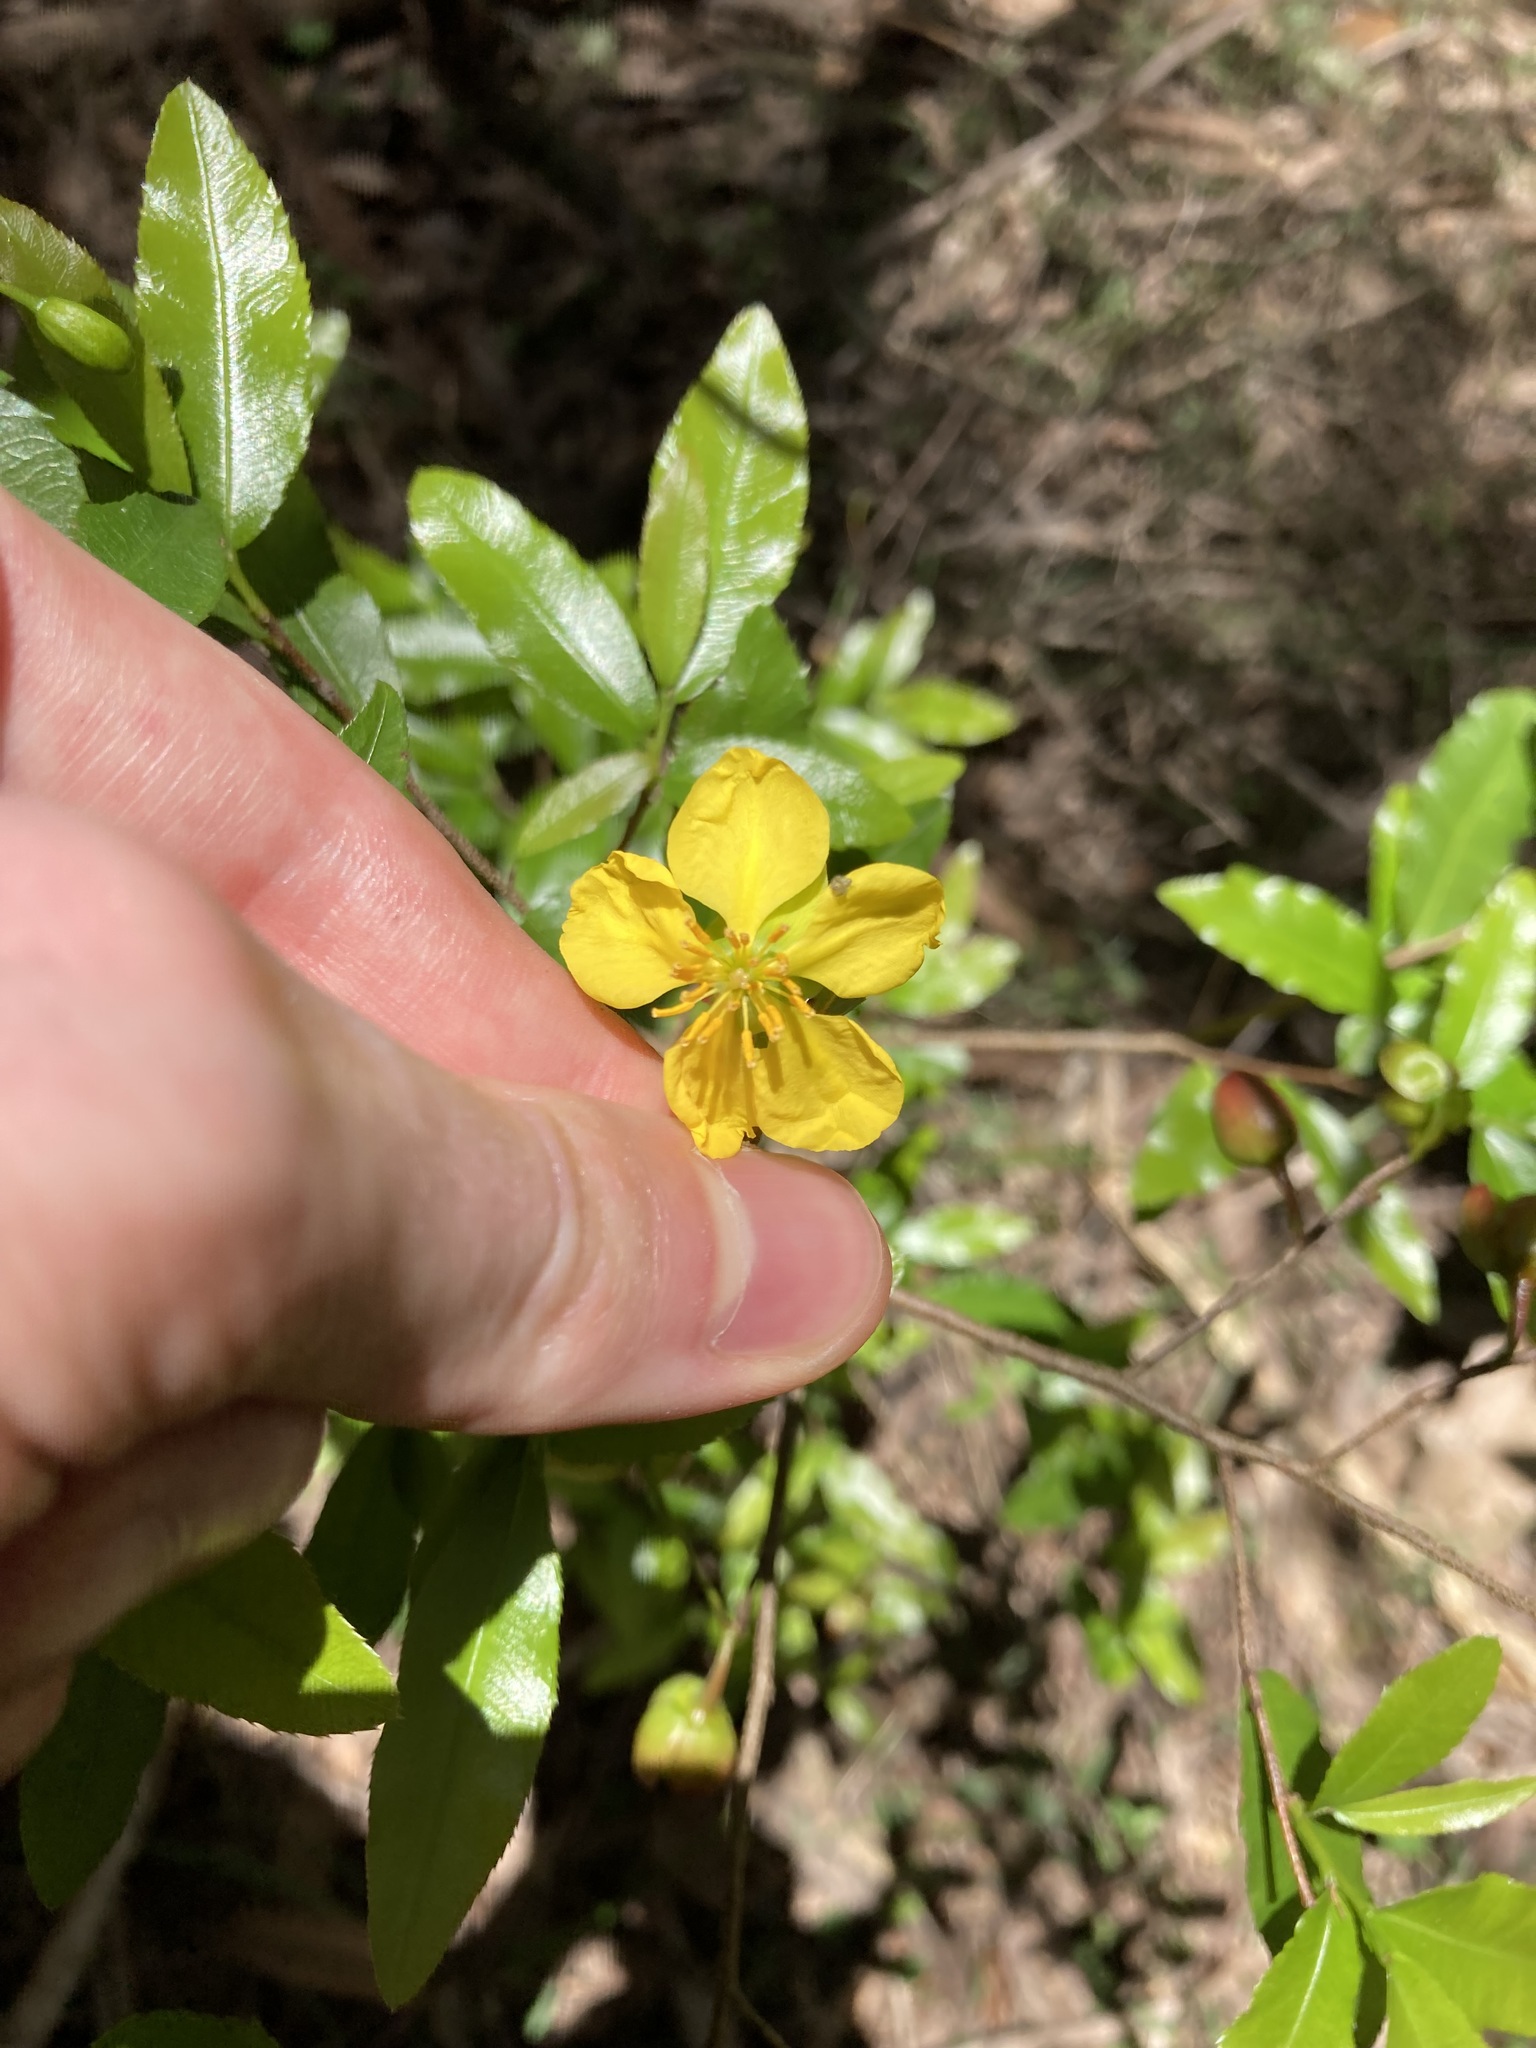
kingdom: Plantae
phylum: Tracheophyta
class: Magnoliopsida
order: Malpighiales
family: Ochnaceae
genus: Ochna
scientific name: Ochna serrulata
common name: Mickey mouse plant
